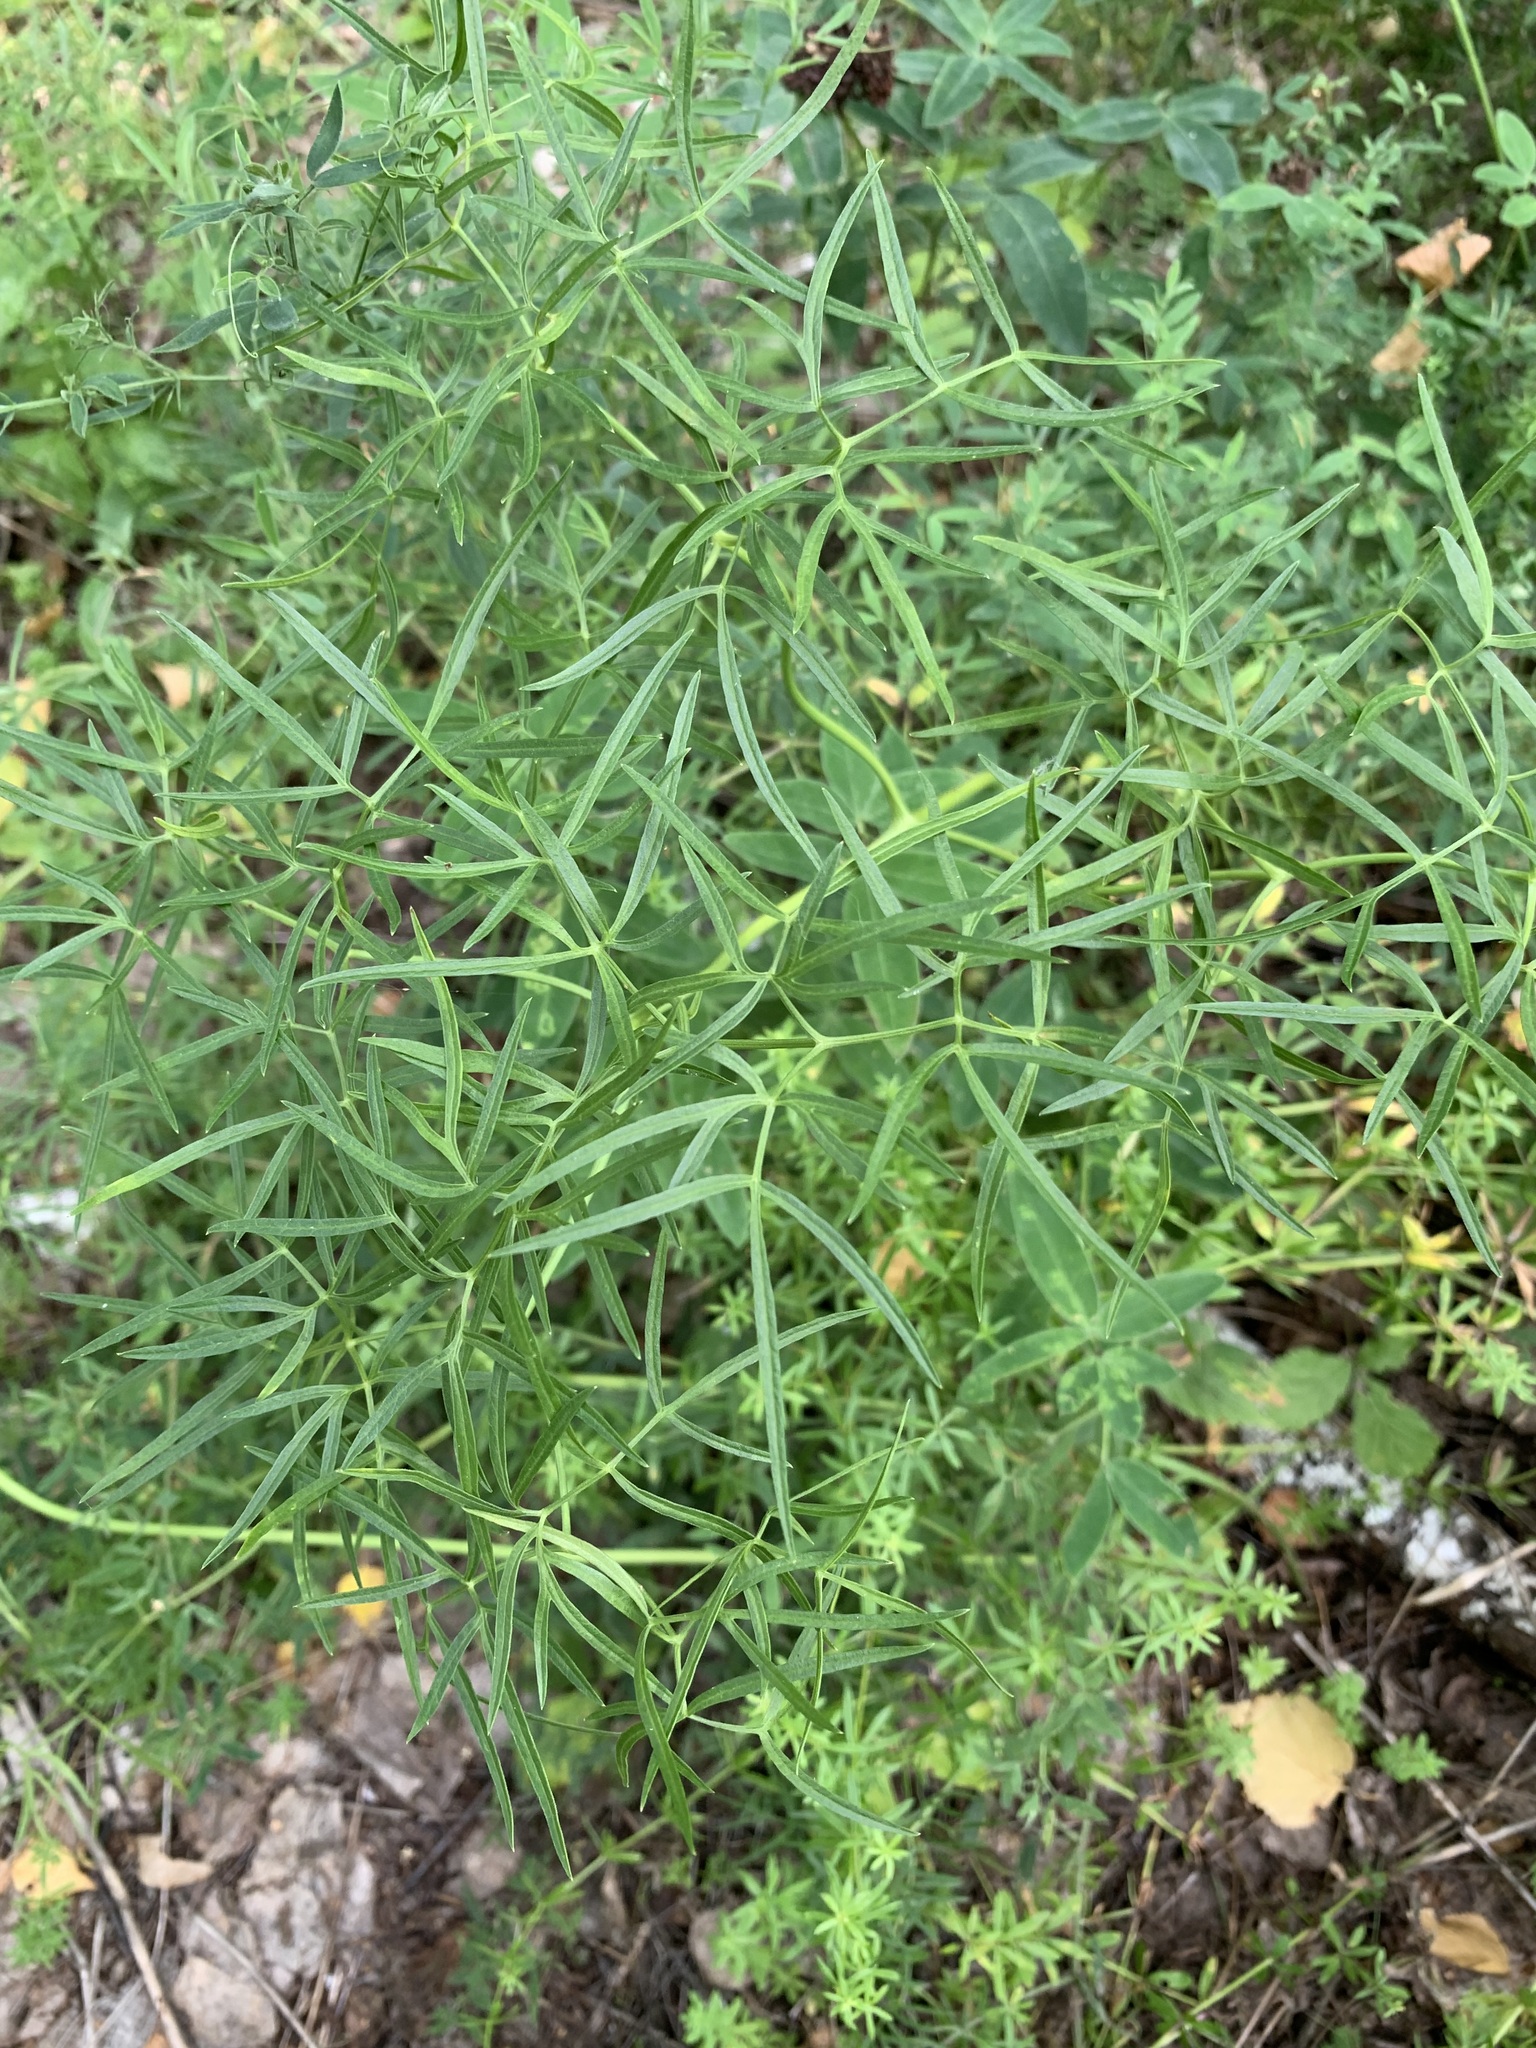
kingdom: Plantae
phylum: Tracheophyta
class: Magnoliopsida
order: Apiales
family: Apiaceae
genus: Cenolophium
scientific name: Cenolophium fischeri
